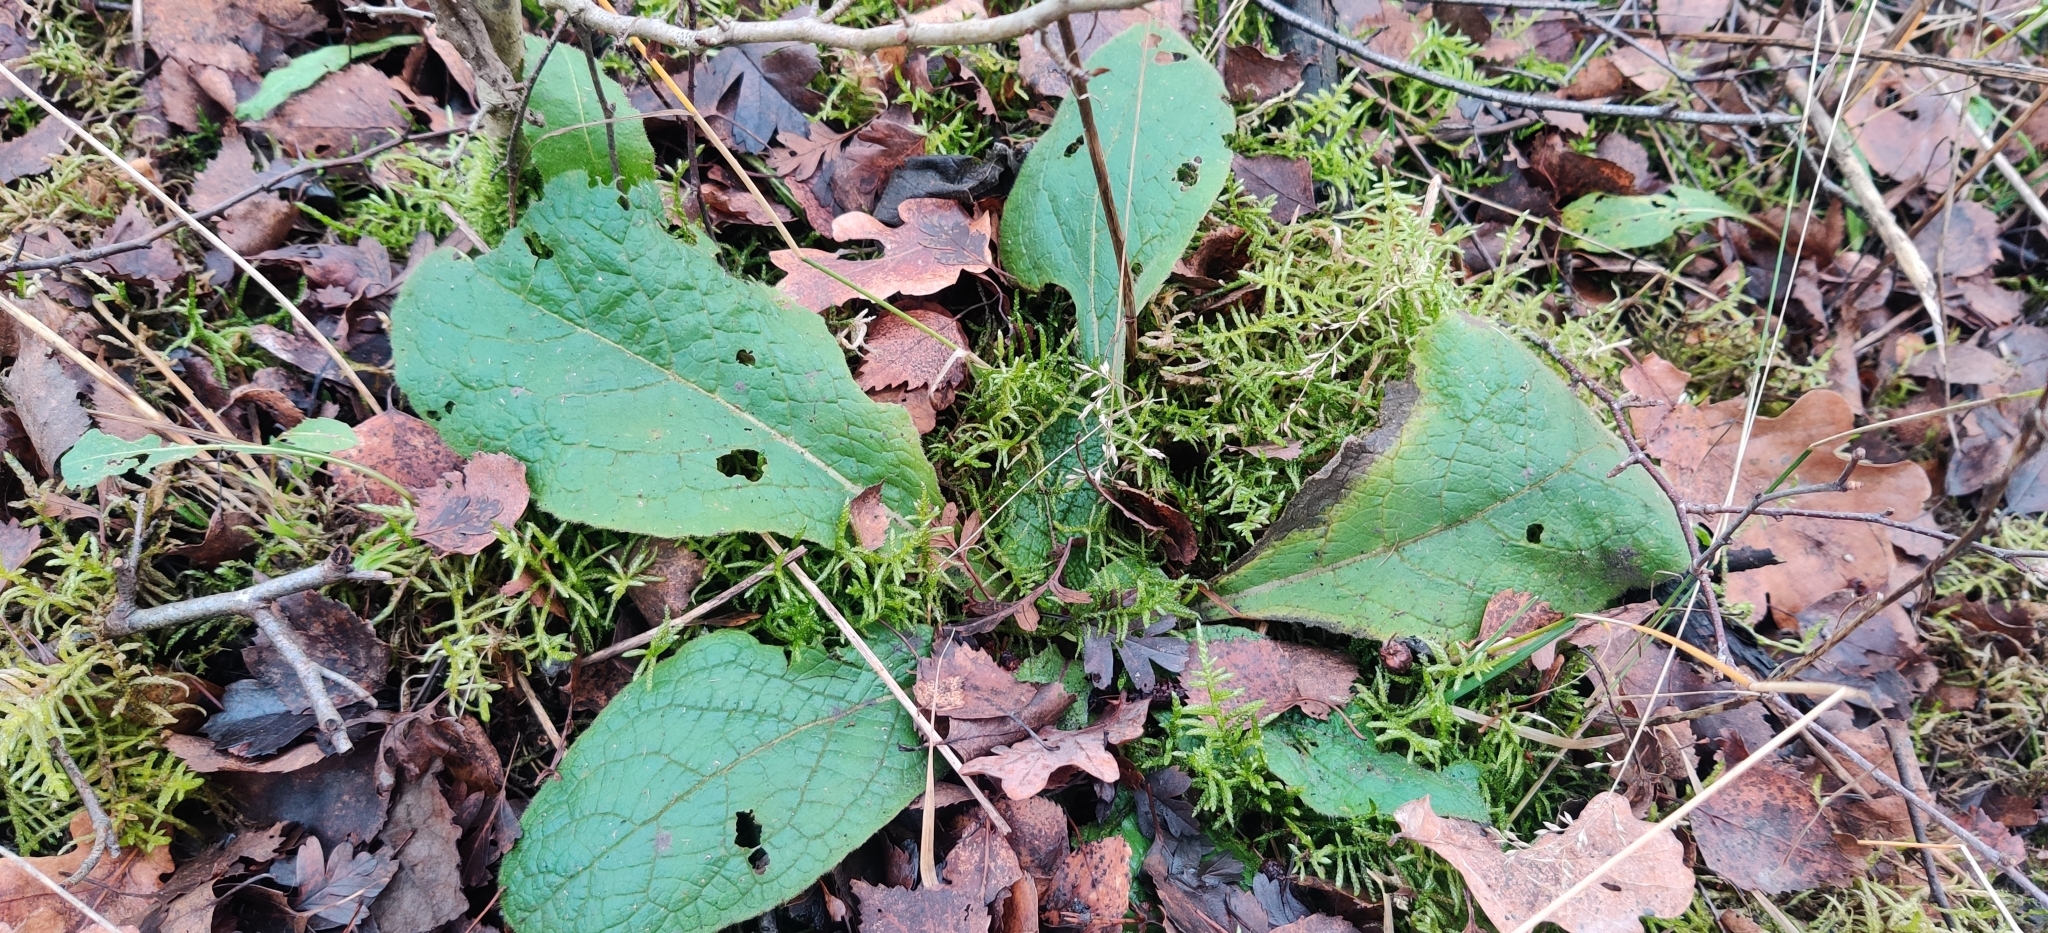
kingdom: Plantae
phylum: Tracheophyta
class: Magnoliopsida
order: Asterales
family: Asteraceae
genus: Pentanema
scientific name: Pentanema squarrosum
